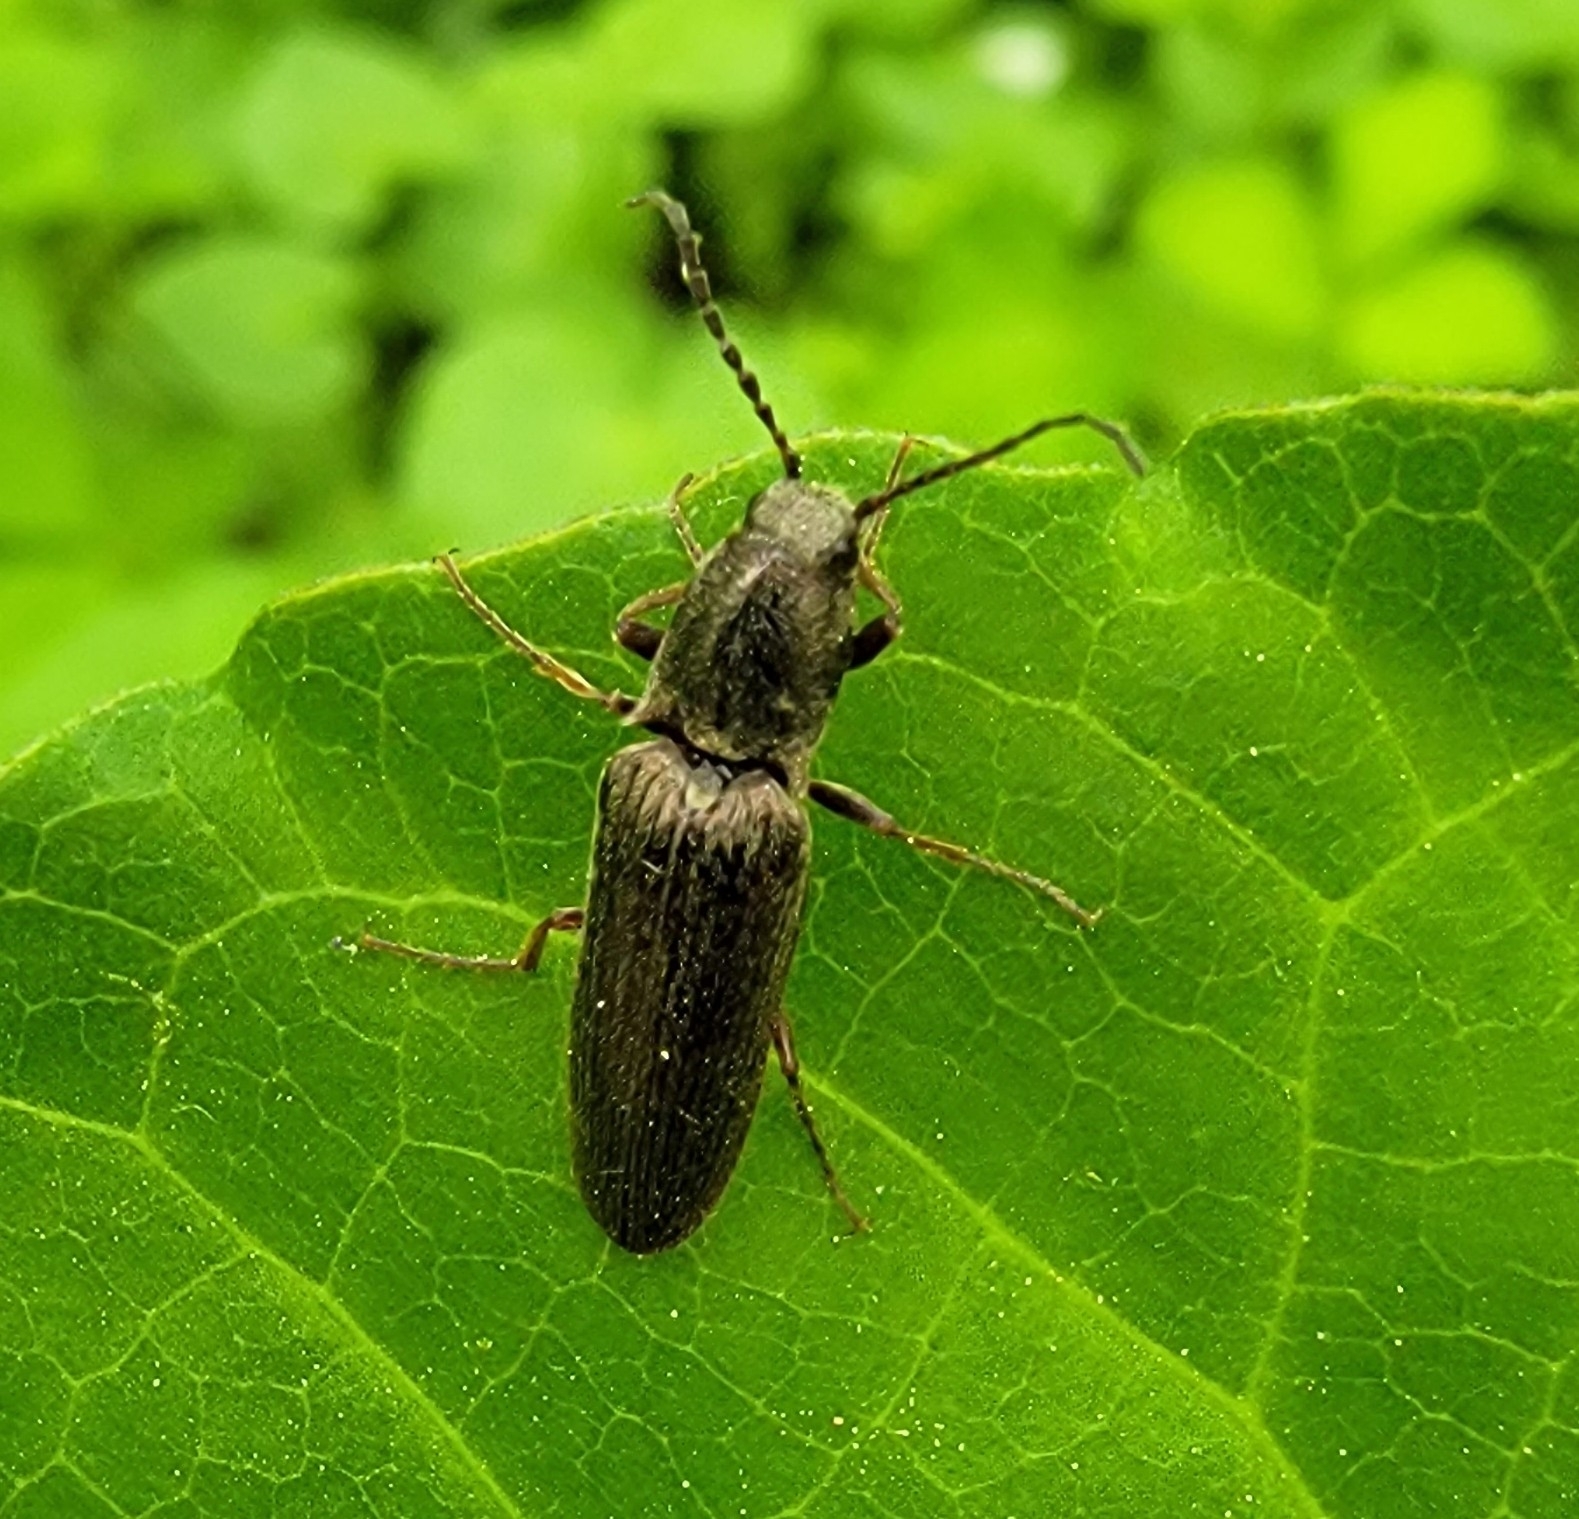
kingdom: Animalia
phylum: Arthropoda
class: Insecta
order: Coleoptera
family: Elateridae
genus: Sylvanelater
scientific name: Sylvanelater cylindriformis
